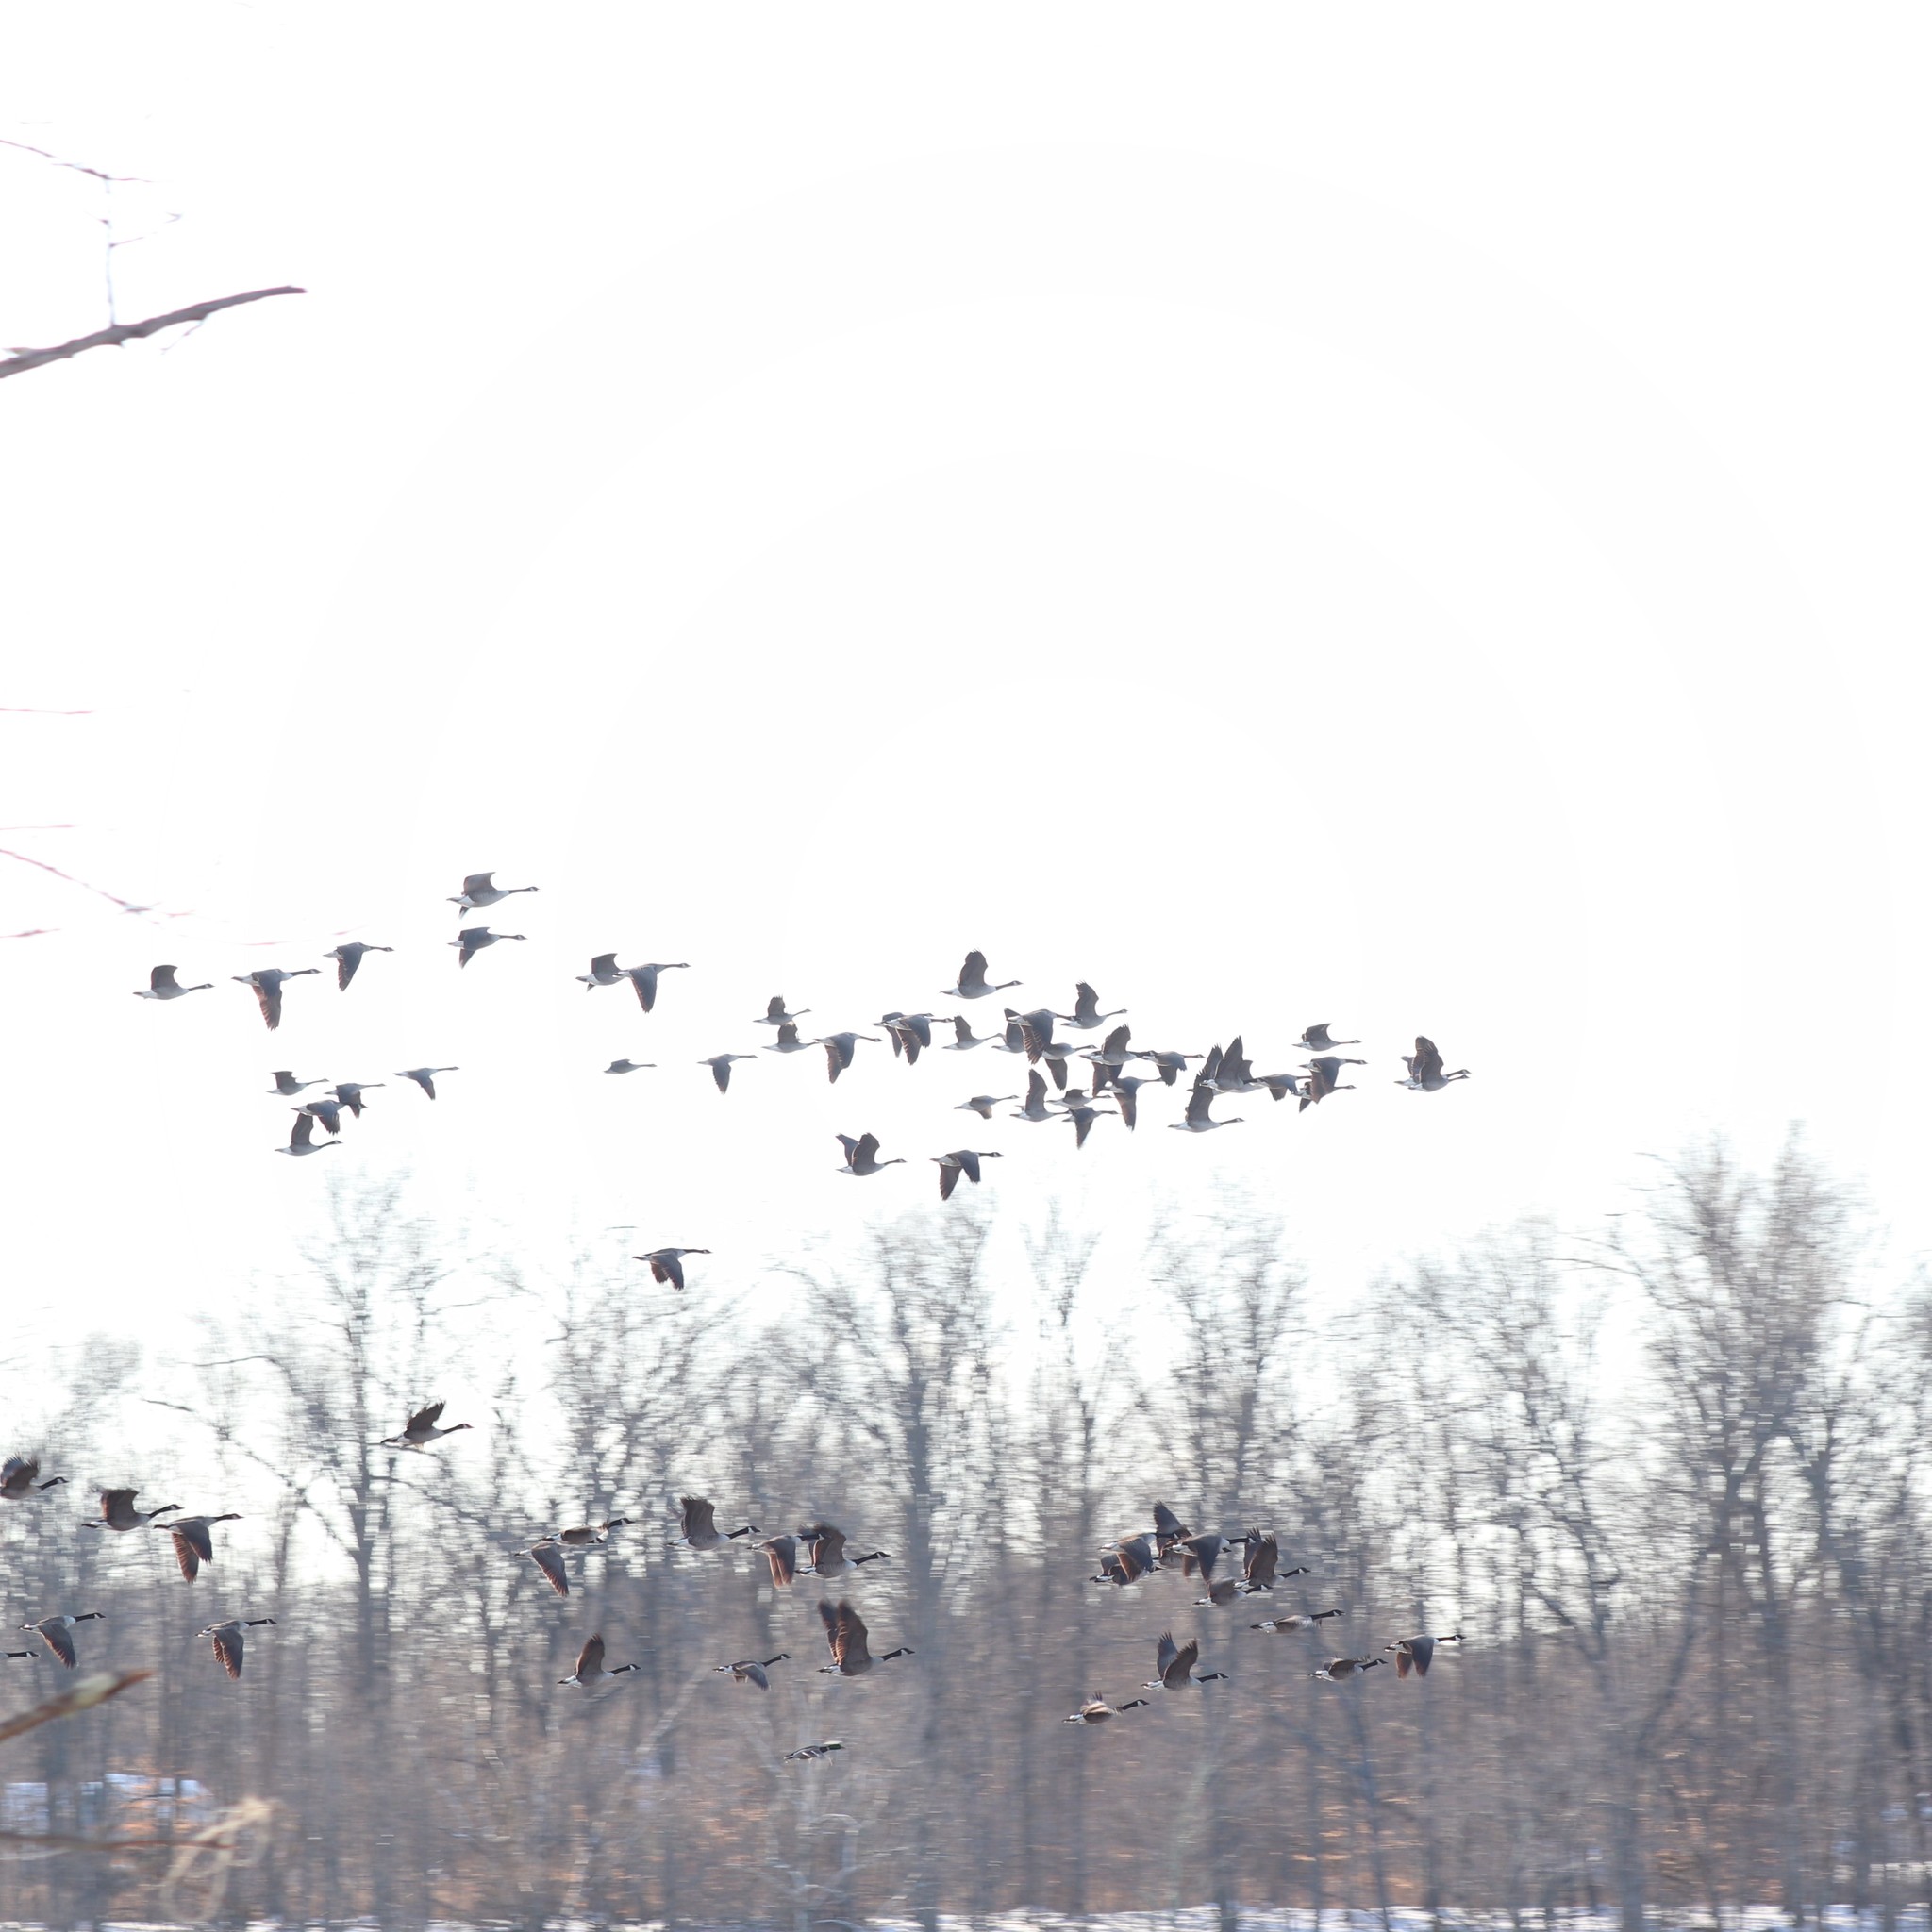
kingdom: Animalia
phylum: Chordata
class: Aves
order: Anseriformes
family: Anatidae
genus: Branta
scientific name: Branta canadensis
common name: Canada goose
